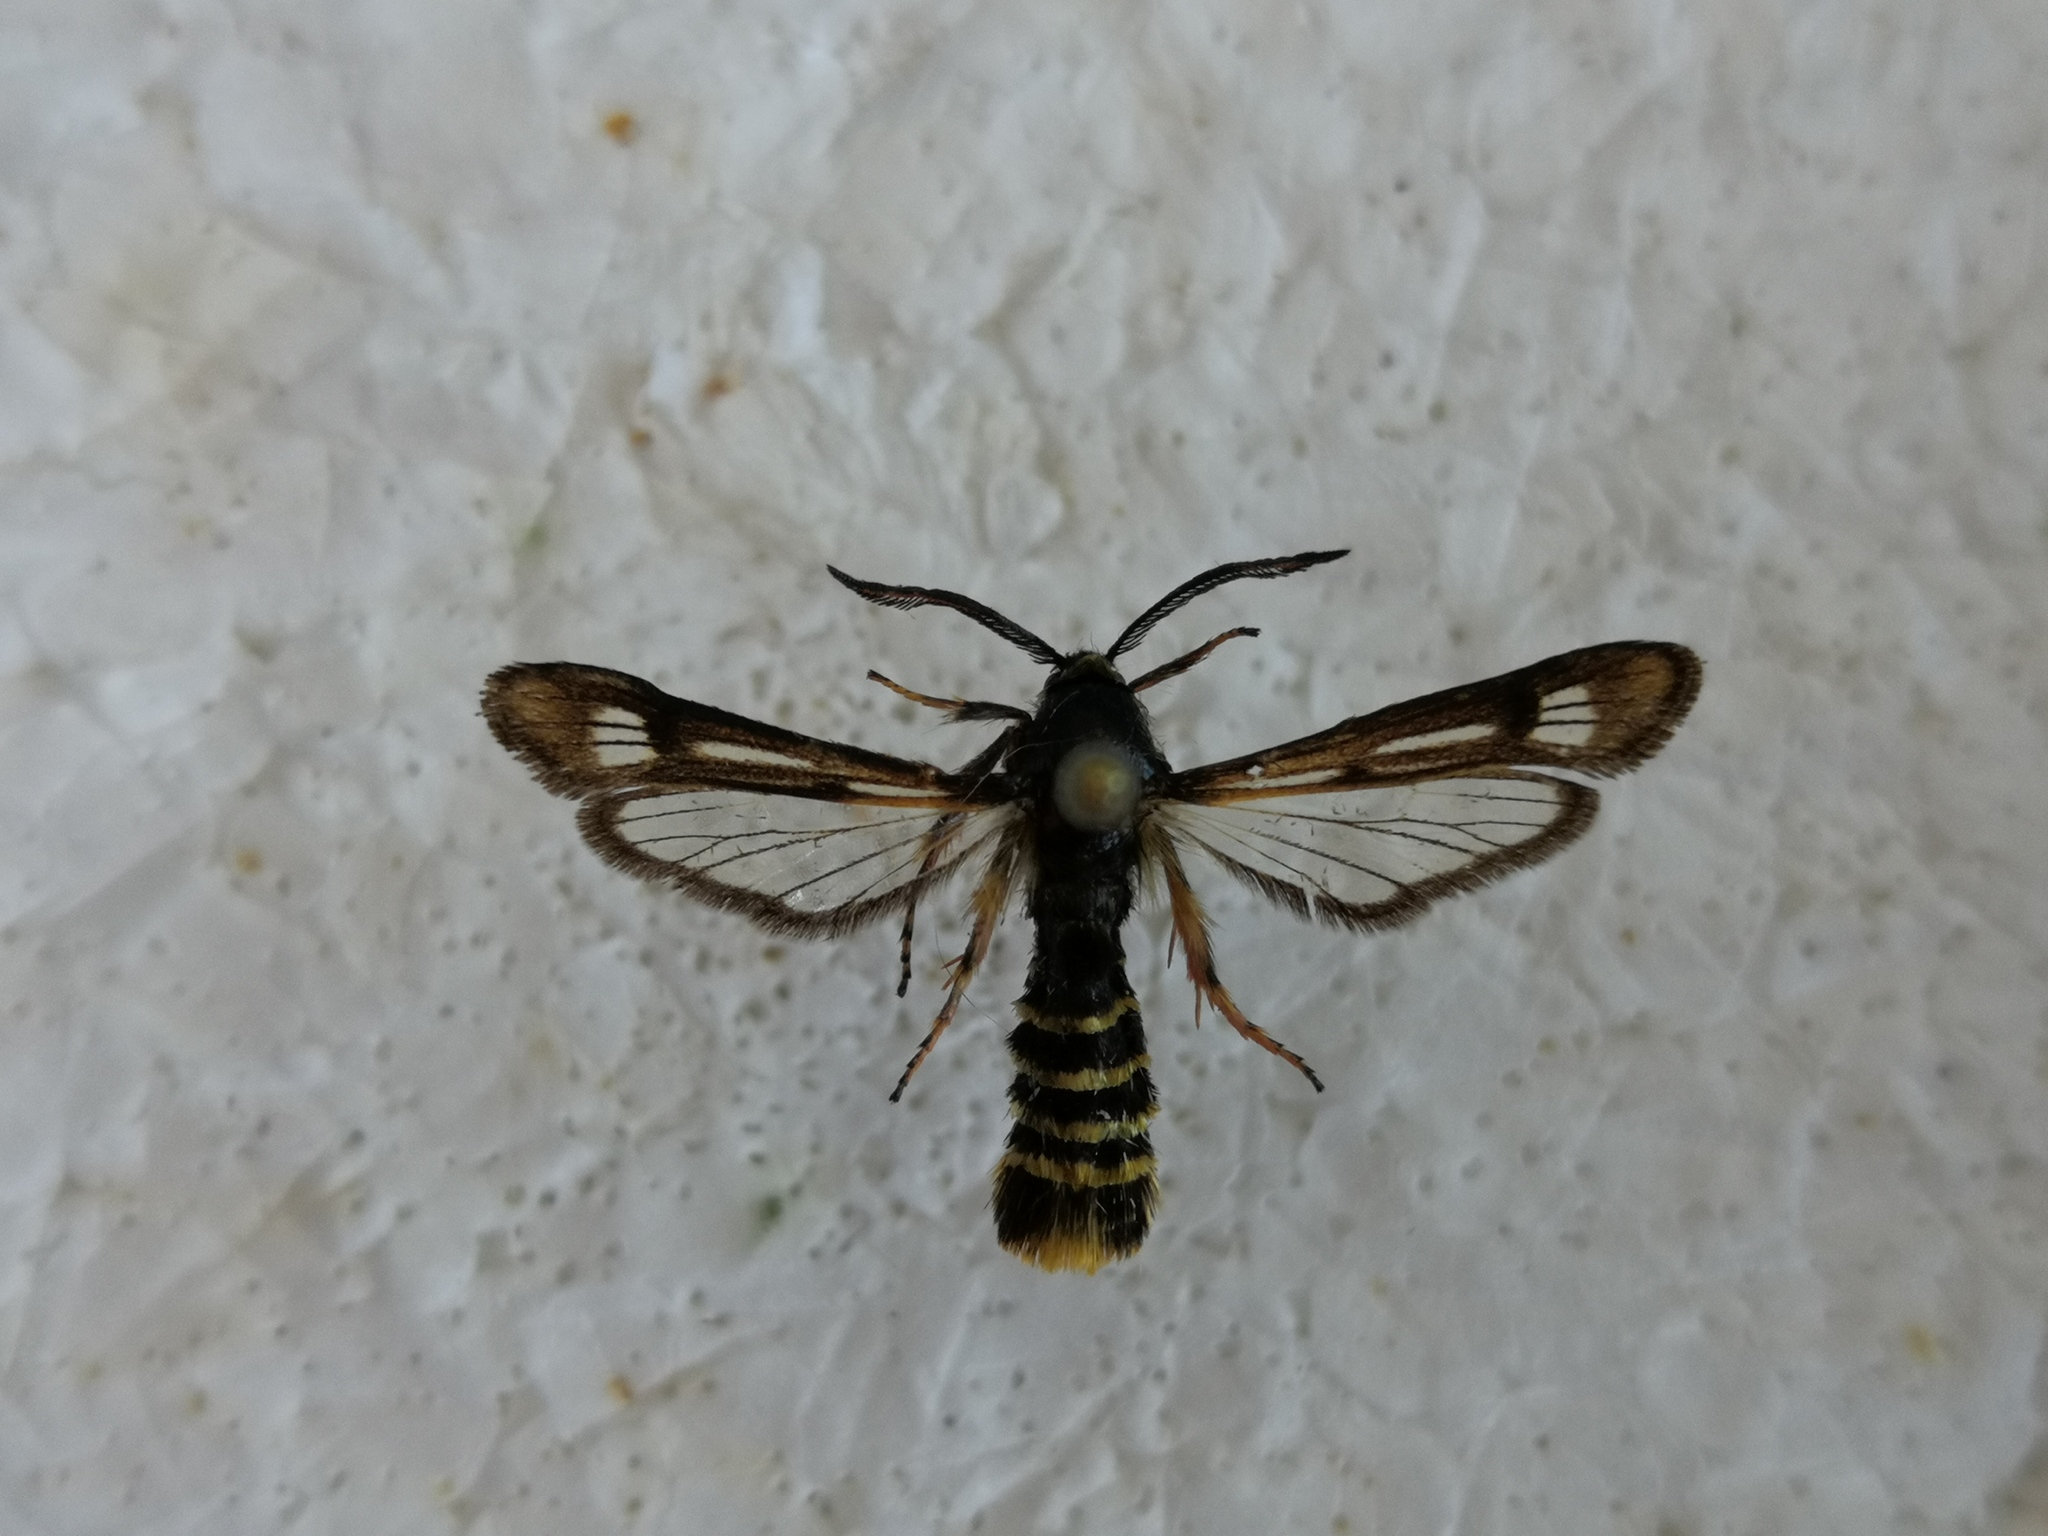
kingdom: Animalia
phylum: Arthropoda
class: Insecta
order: Lepidoptera
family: Sesiidae
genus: Pennisetia
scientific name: Pennisetia hylaeiformis
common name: Raspberry clearwing
